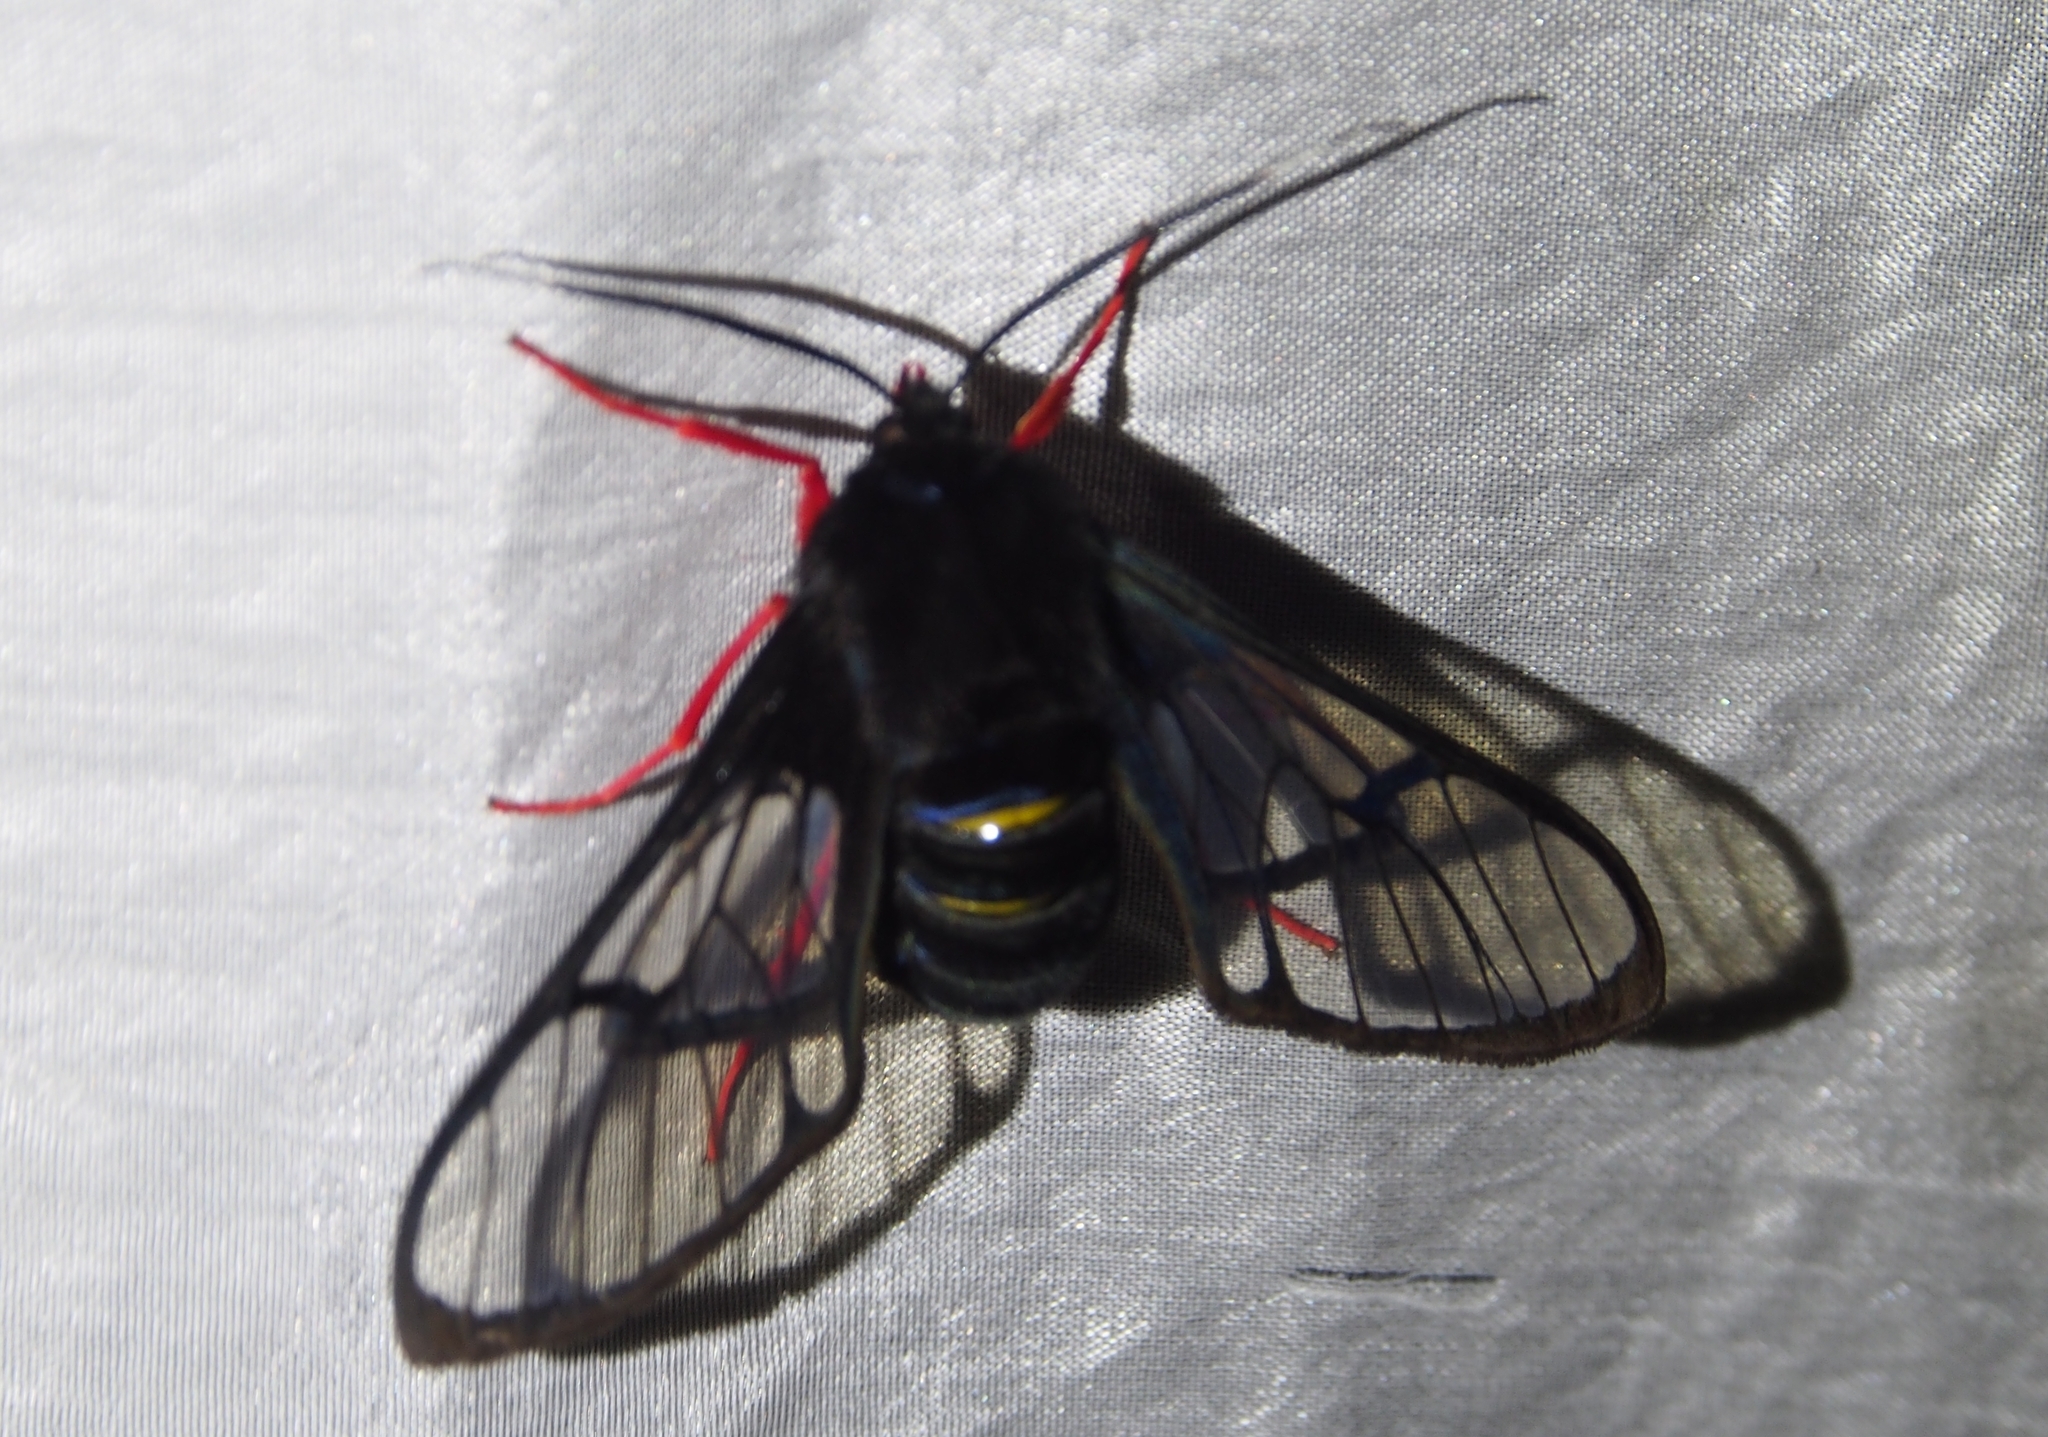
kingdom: Animalia
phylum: Arthropoda
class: Insecta
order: Lepidoptera
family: Erebidae
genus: Cosmosoma
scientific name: Cosmosoma gigantea
